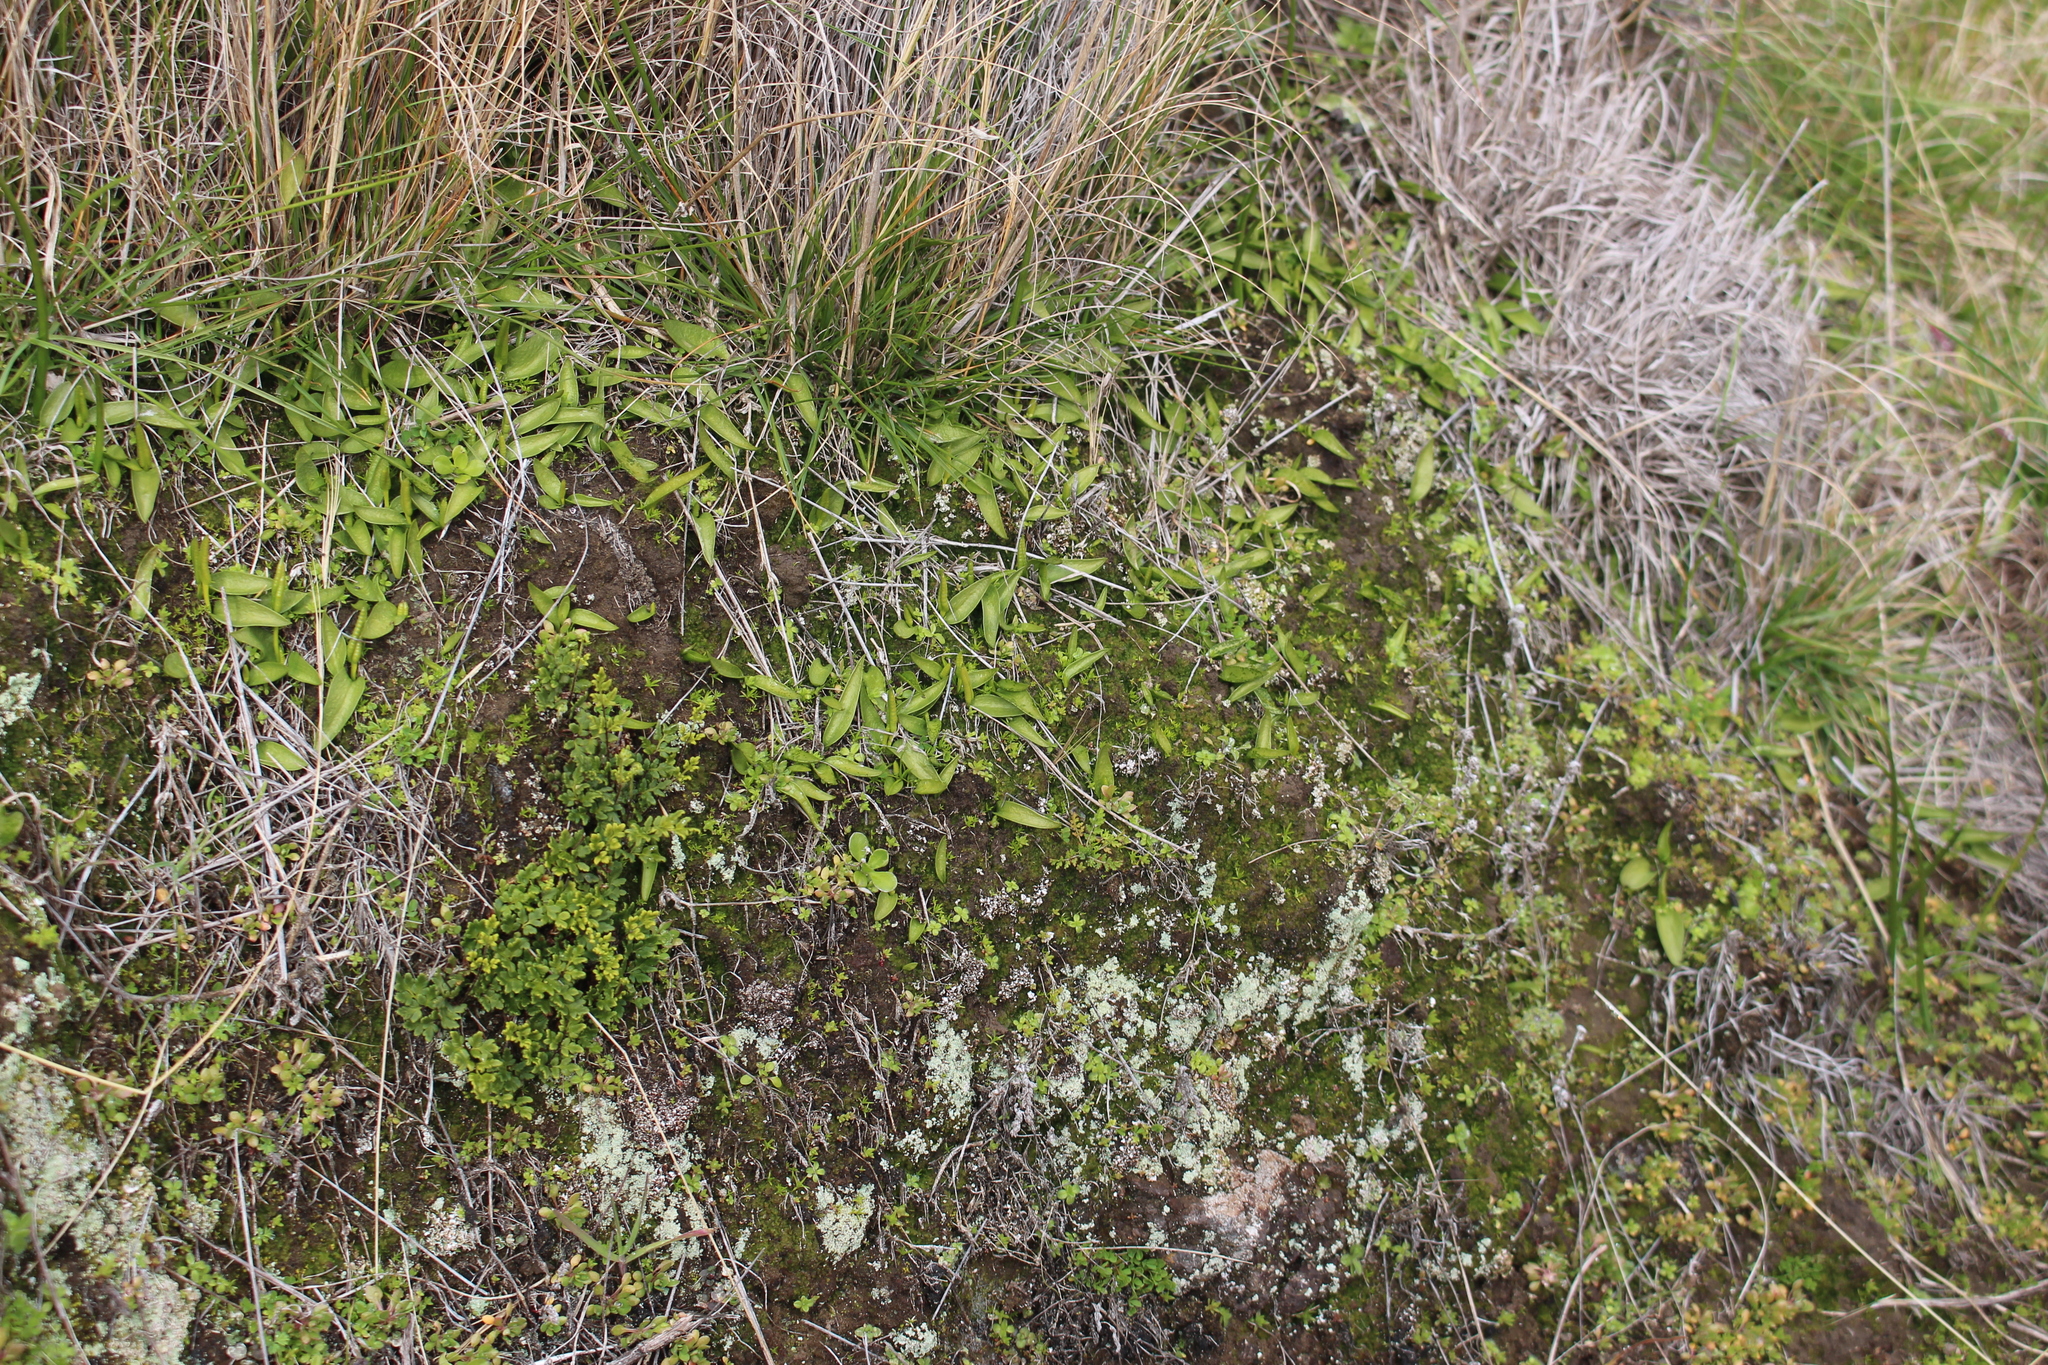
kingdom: Plantae
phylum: Tracheophyta
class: Polypodiopsida
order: Ophioglossales
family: Ophioglossaceae
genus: Ophioglossum
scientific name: Ophioglossum coriaceum
